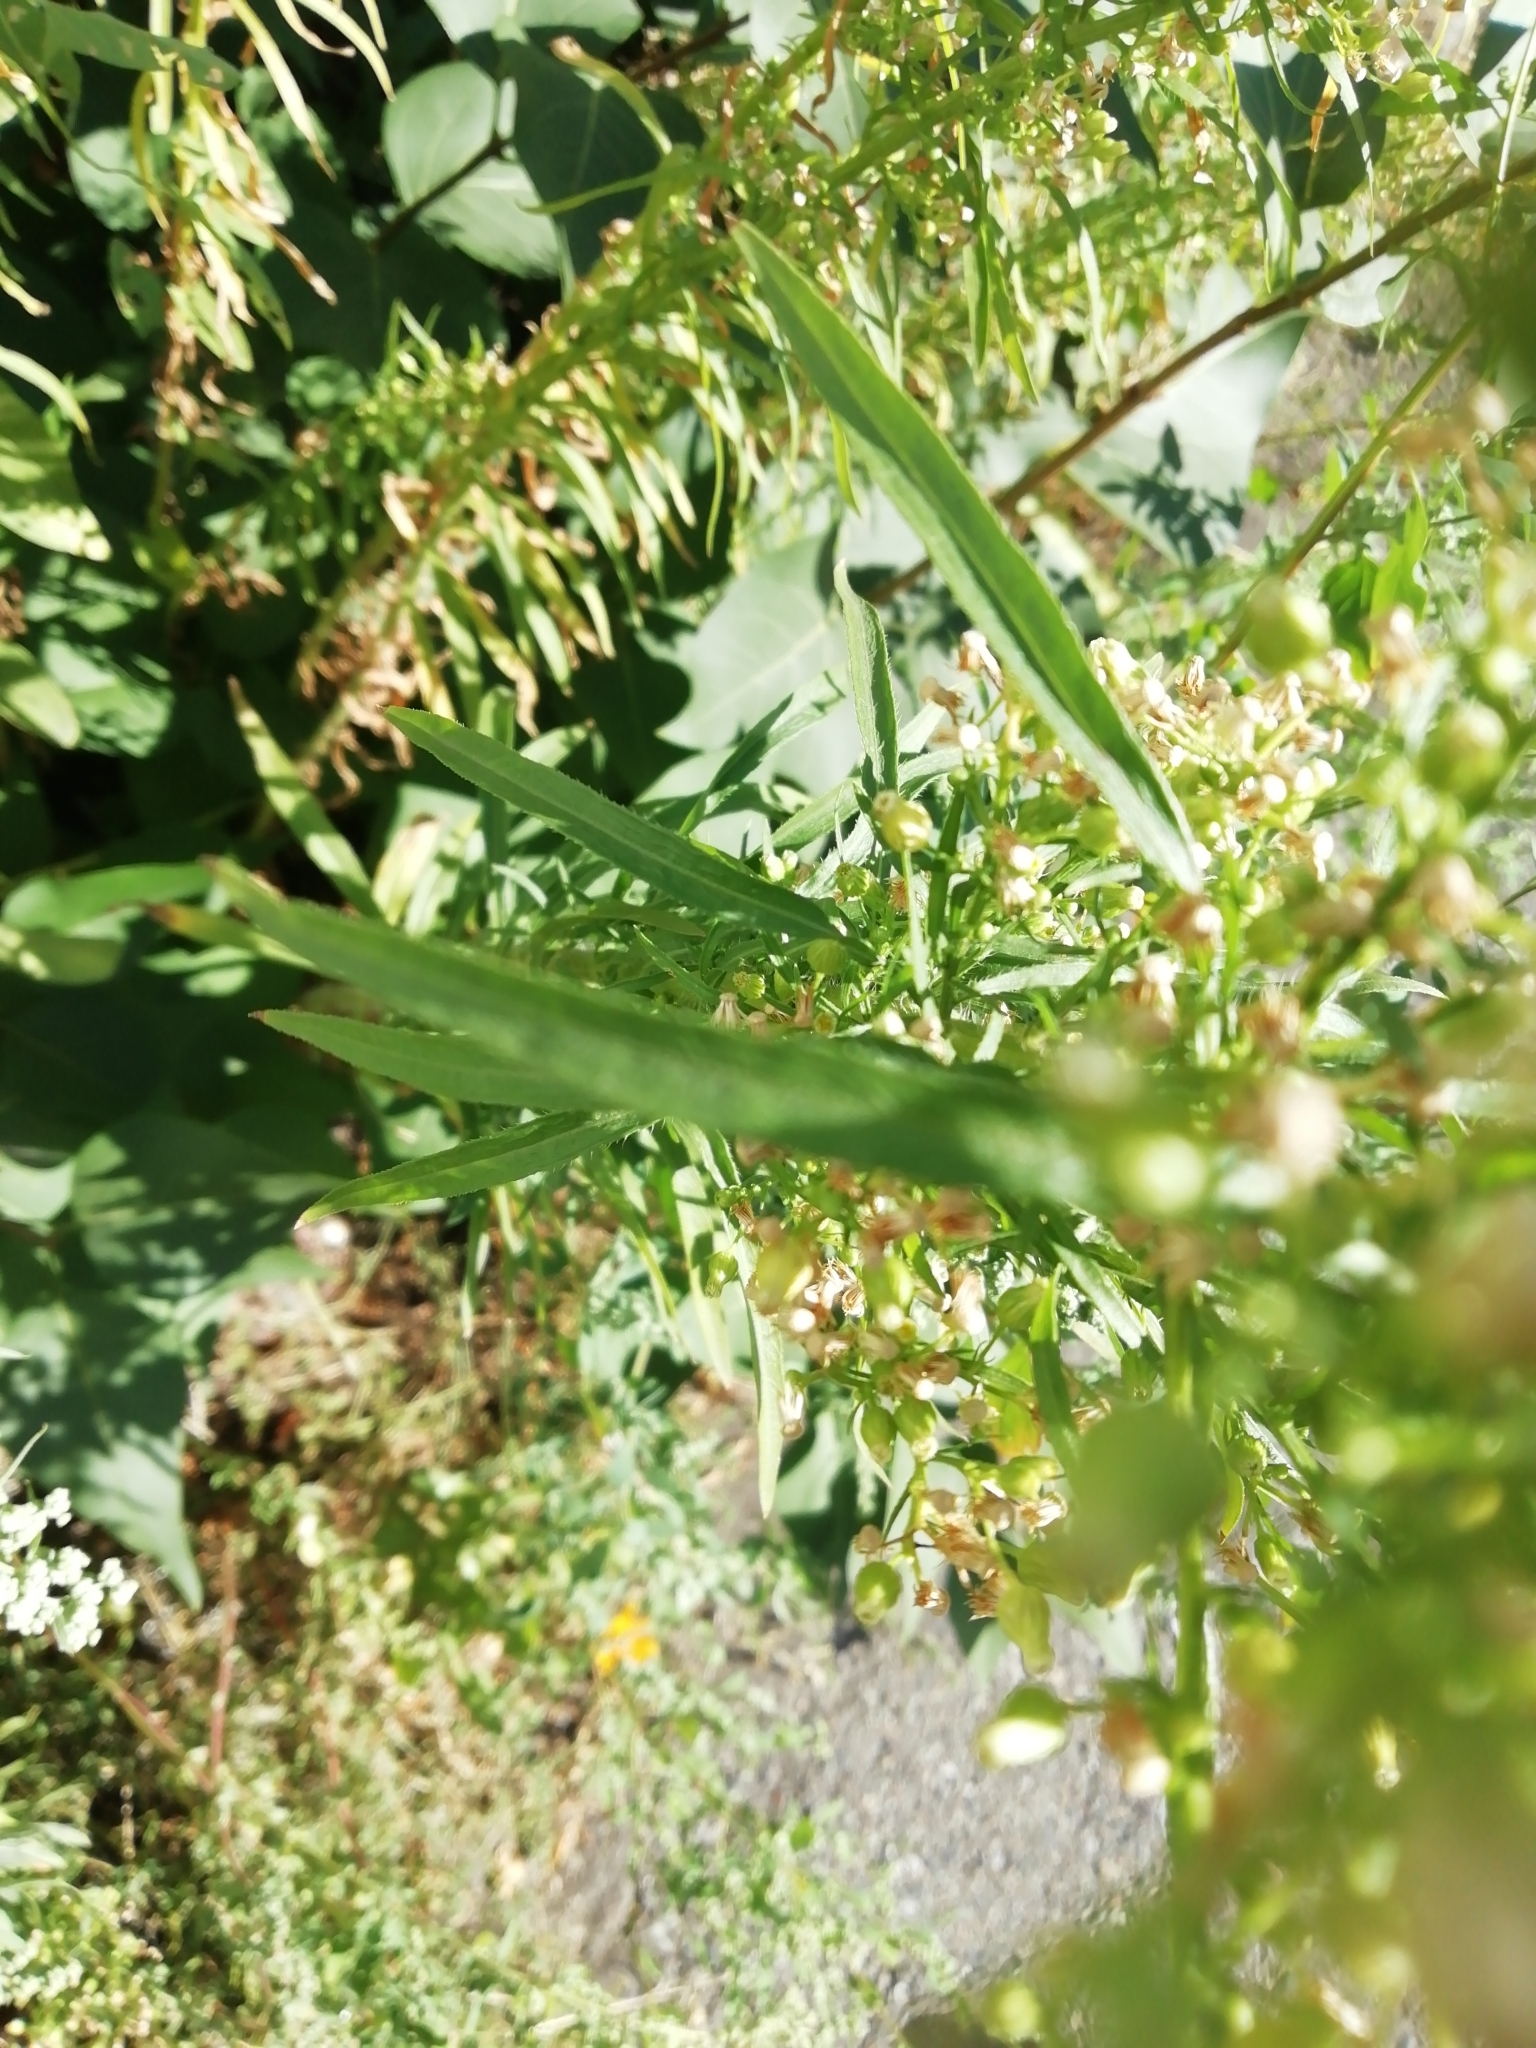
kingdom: Plantae
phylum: Tracheophyta
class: Magnoliopsida
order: Asterales
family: Asteraceae
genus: Erigeron
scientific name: Erigeron canadensis
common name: Canadian fleabane
